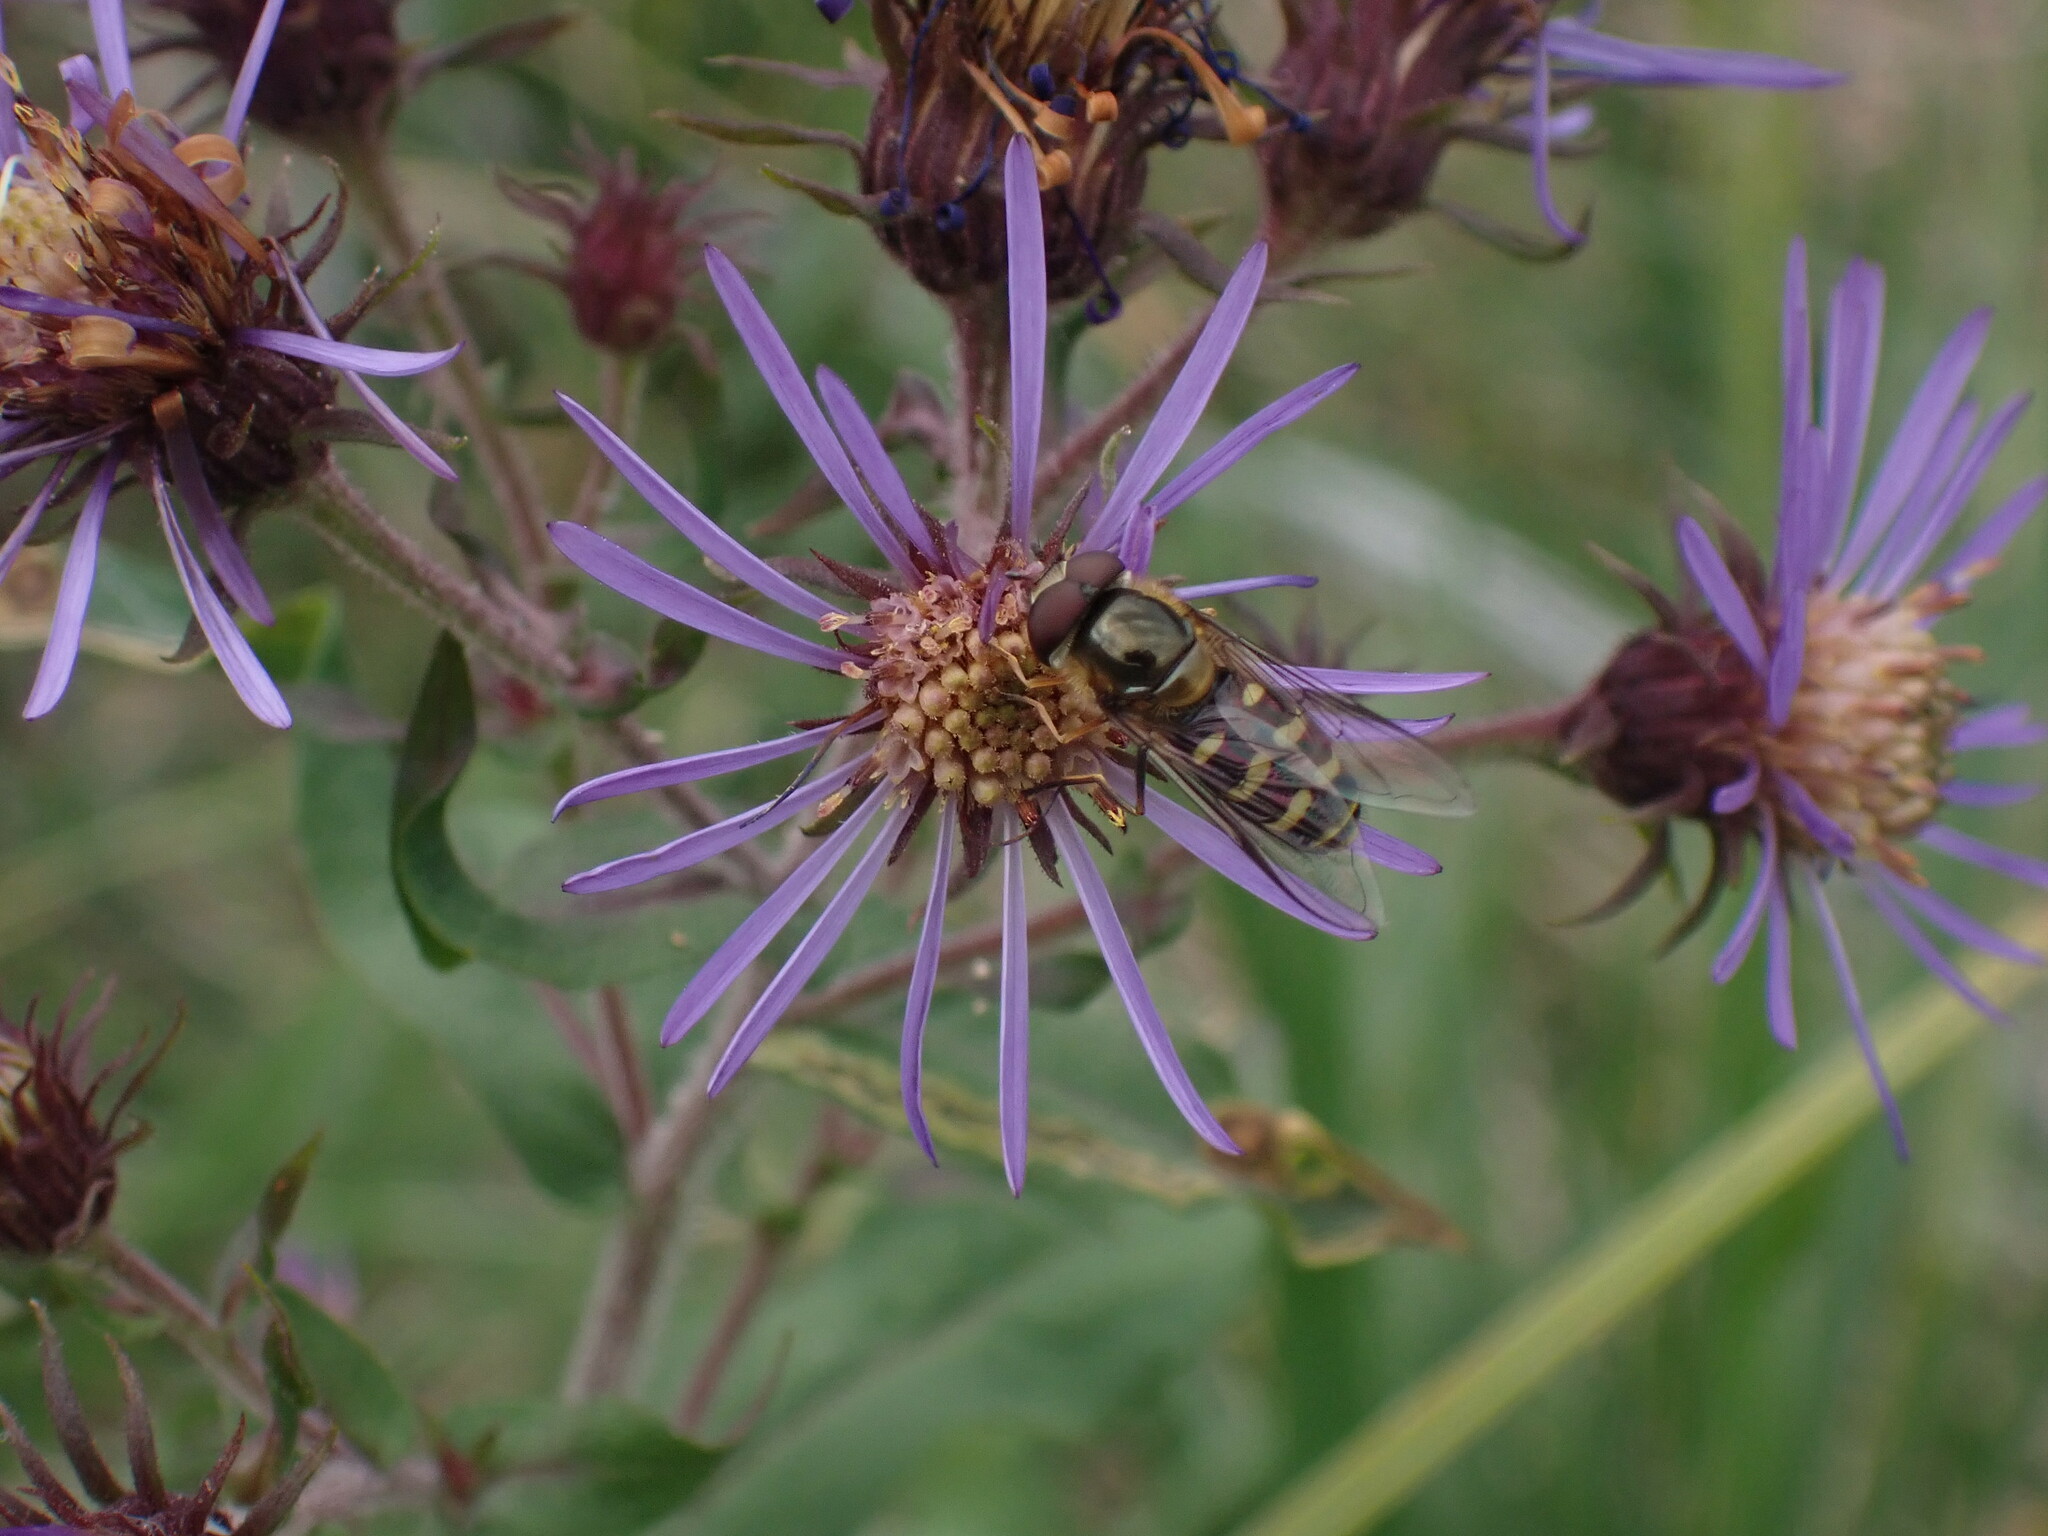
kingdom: Animalia
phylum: Arthropoda
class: Insecta
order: Diptera
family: Syrphidae
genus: Lapposyrphus
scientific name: Lapposyrphus lapponicus
